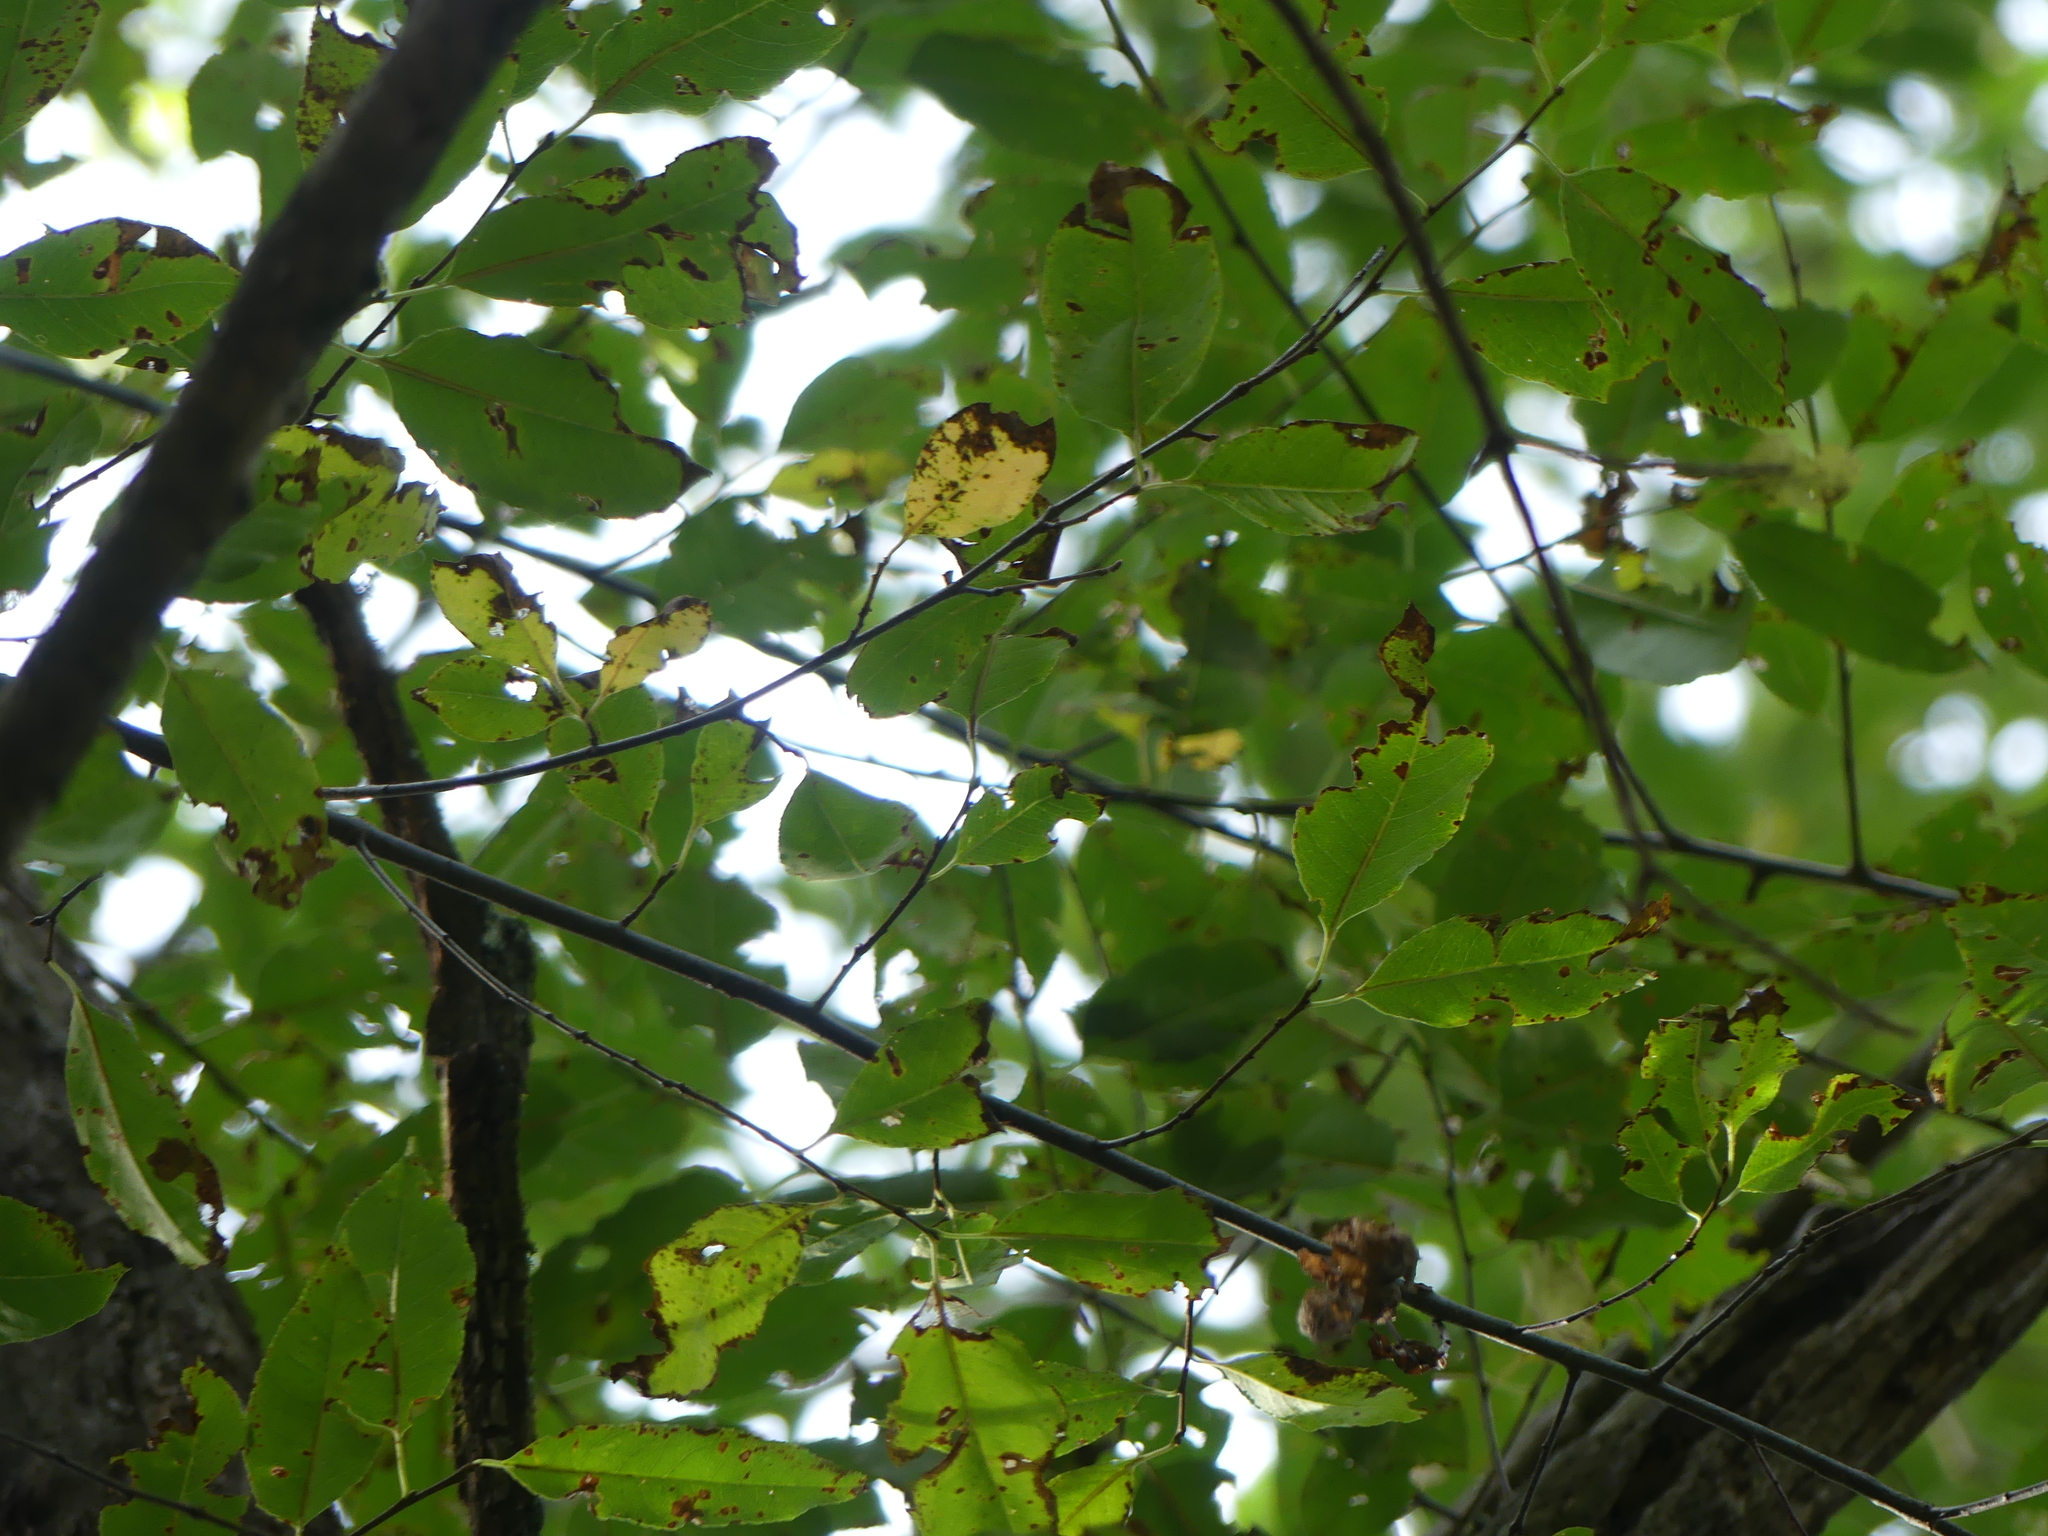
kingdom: Plantae
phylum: Tracheophyta
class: Magnoliopsida
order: Rosales
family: Rosaceae
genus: Prunus
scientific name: Prunus serotina
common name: Black cherry
